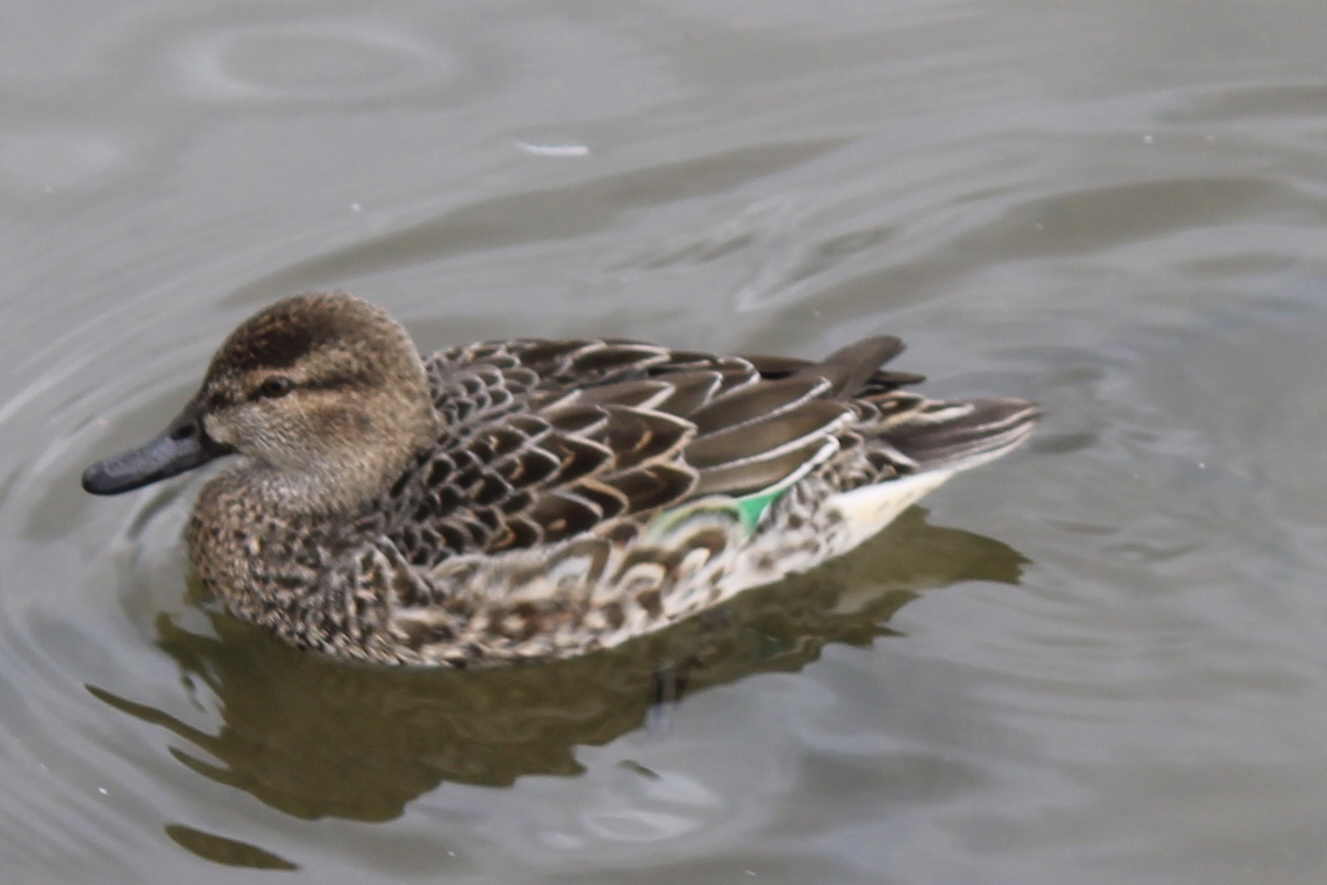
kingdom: Animalia
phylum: Chordata
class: Aves
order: Anseriformes
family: Anatidae
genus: Anas
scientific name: Anas crecca
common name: Eurasian teal
